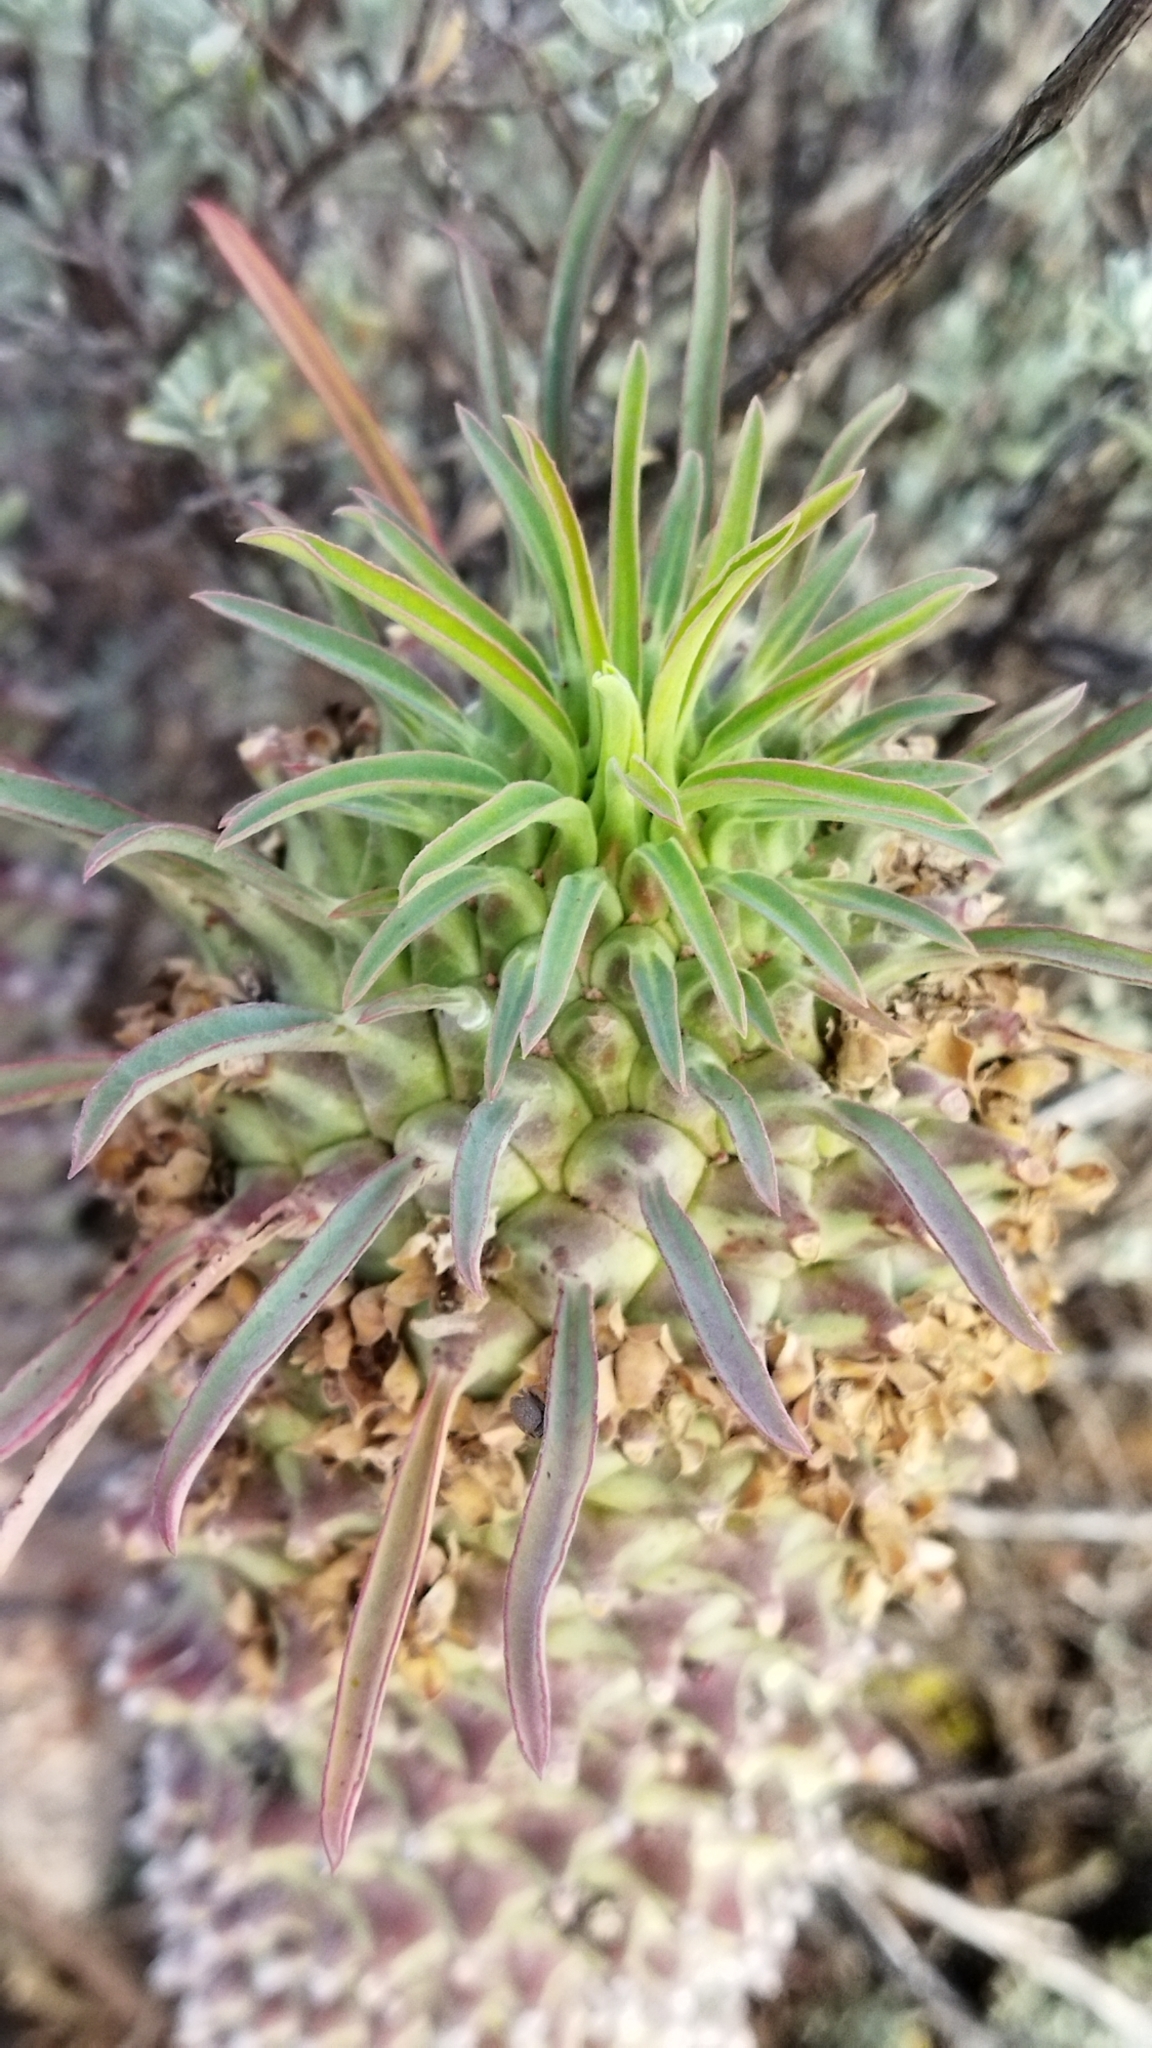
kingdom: Plantae
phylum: Tracheophyta
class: Magnoliopsida
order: Malpighiales
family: Euphorbiaceae
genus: Euphorbia
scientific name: Euphorbia clandestina
